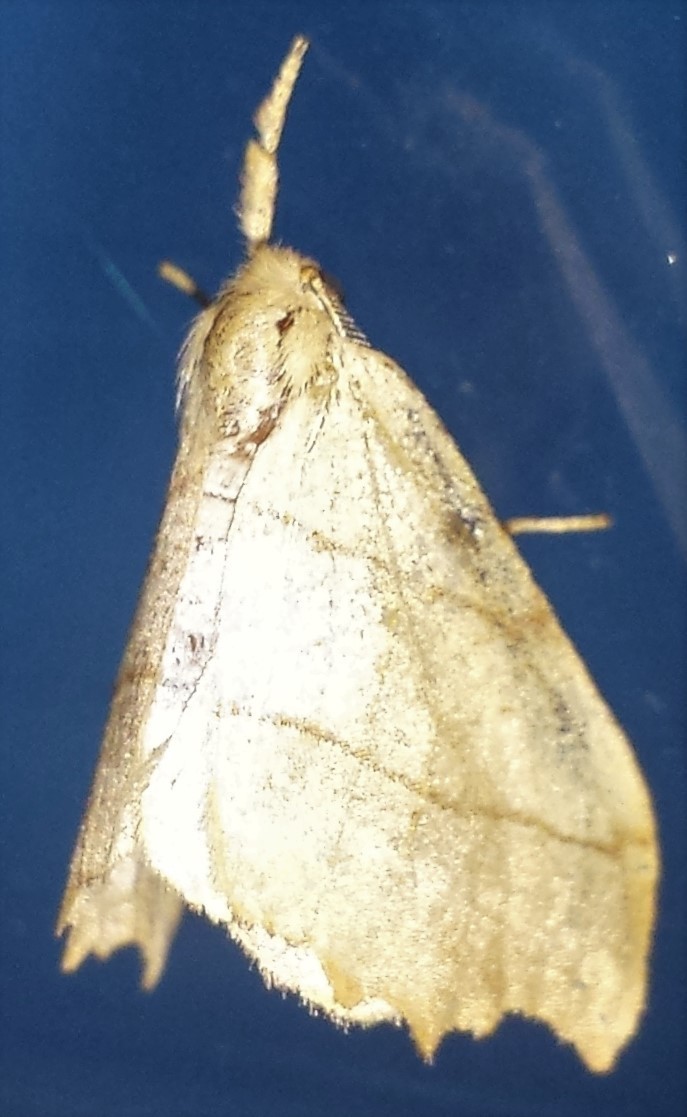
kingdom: Animalia
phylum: Arthropoda
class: Insecta
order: Lepidoptera
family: Drepanidae
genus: Falcaria
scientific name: Falcaria bilineata
